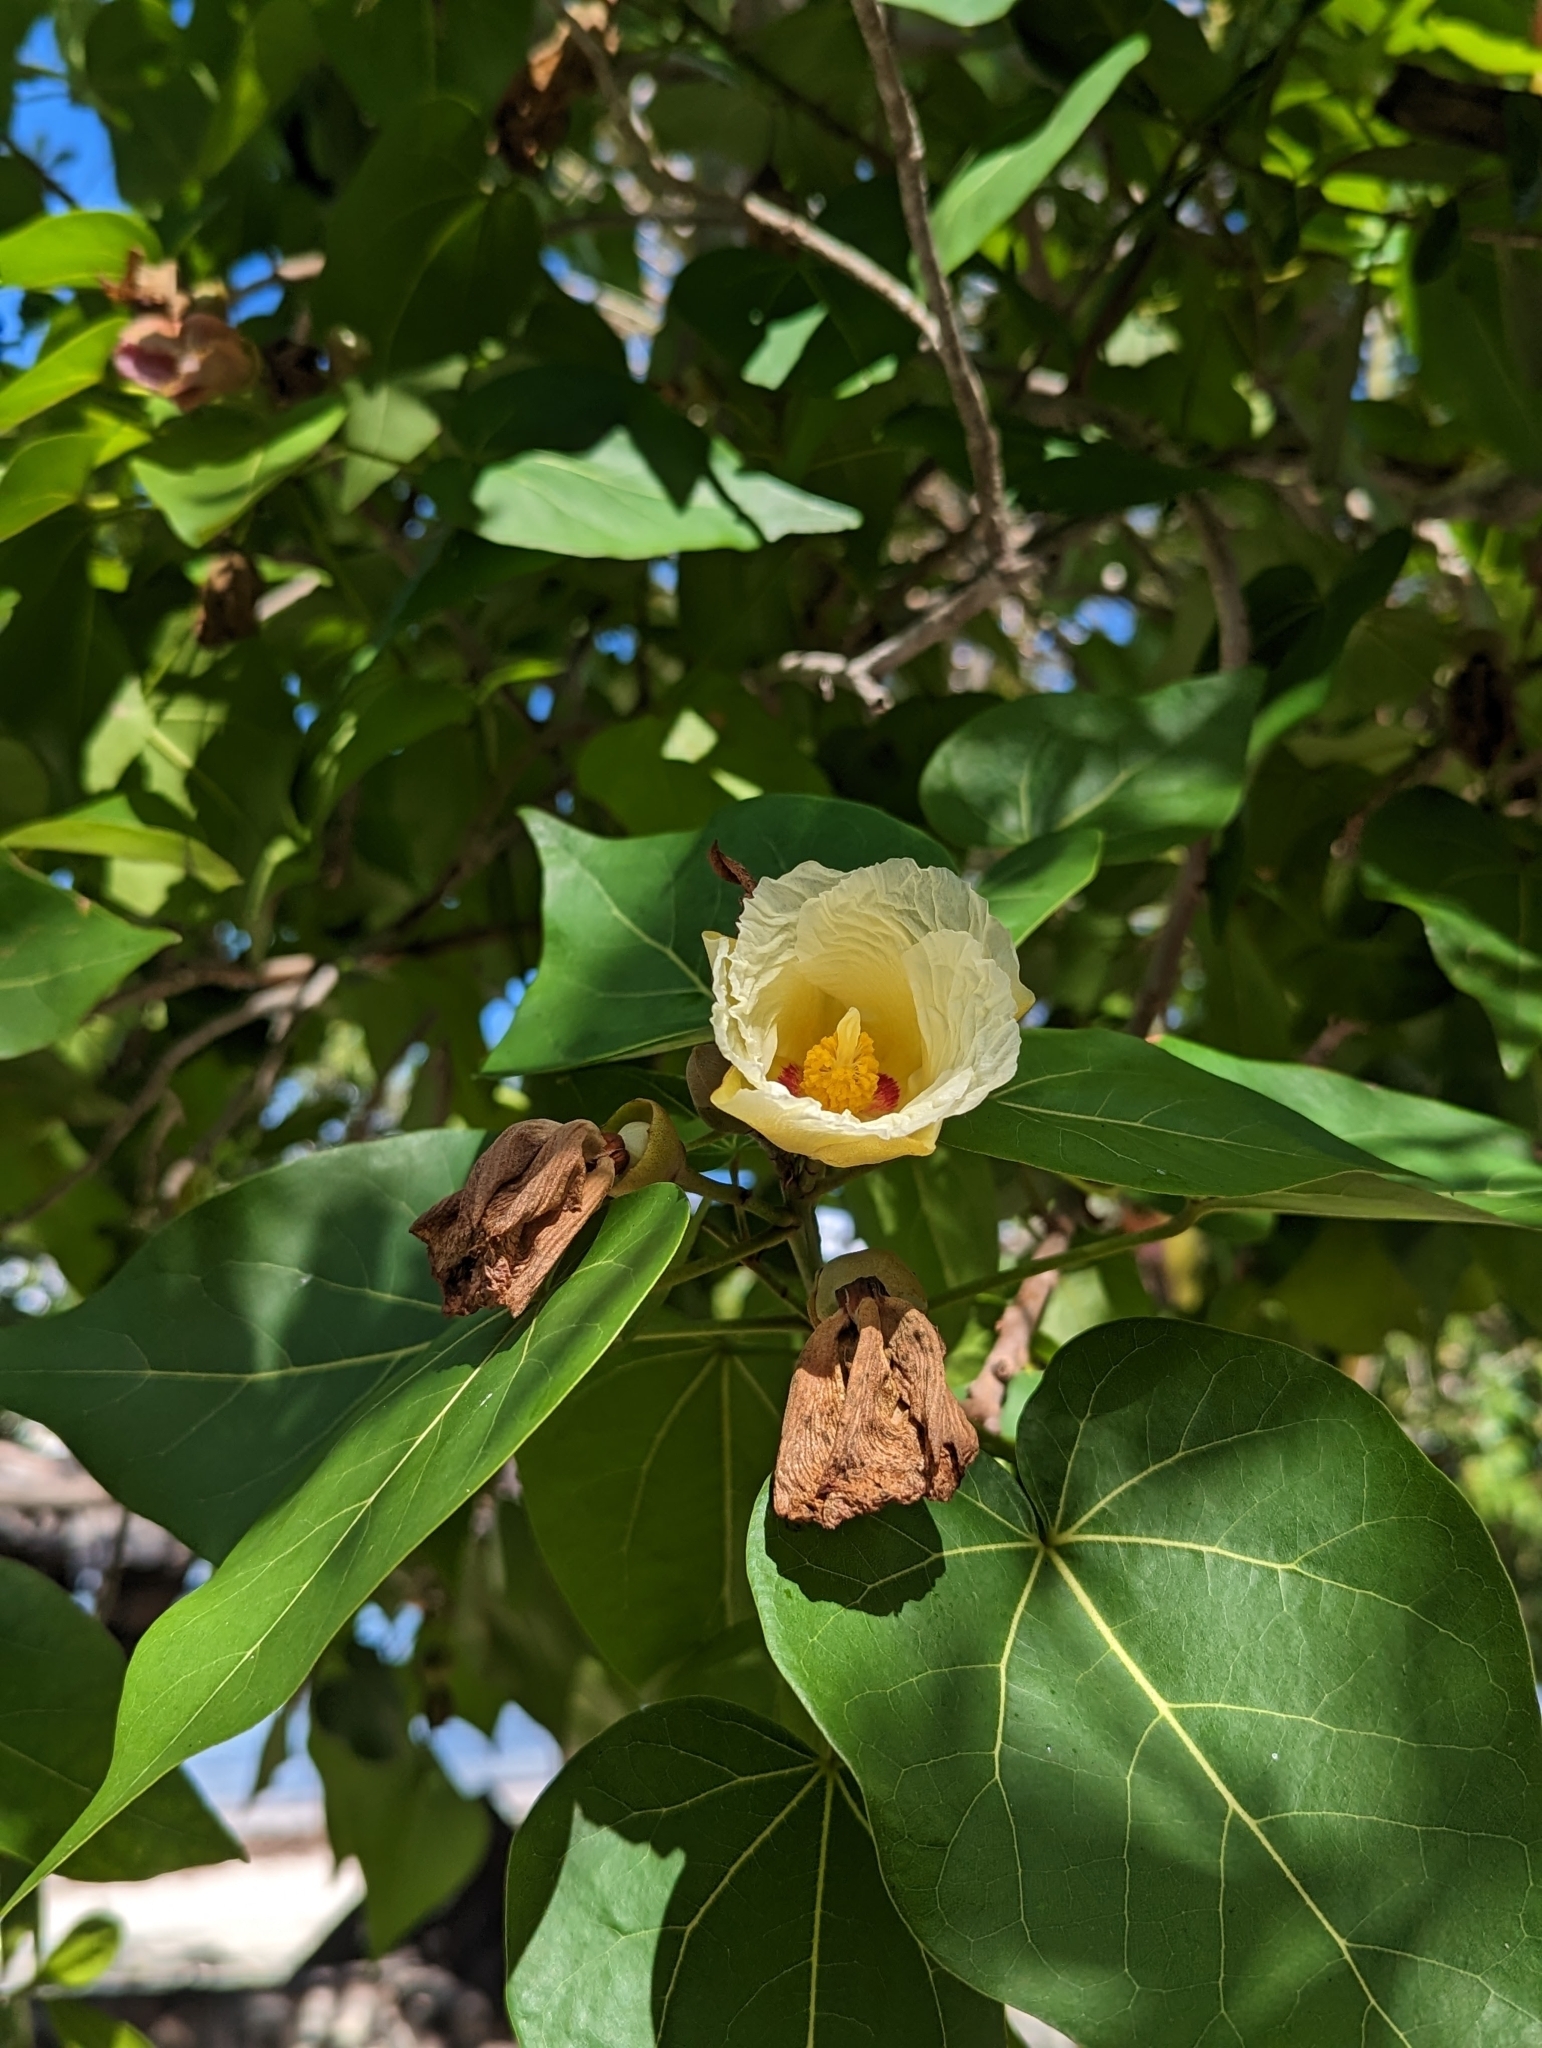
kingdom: Plantae
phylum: Tracheophyta
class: Magnoliopsida
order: Malvales
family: Malvaceae
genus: Thespesia
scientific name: Thespesia populnea
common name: Seaside mahoe
